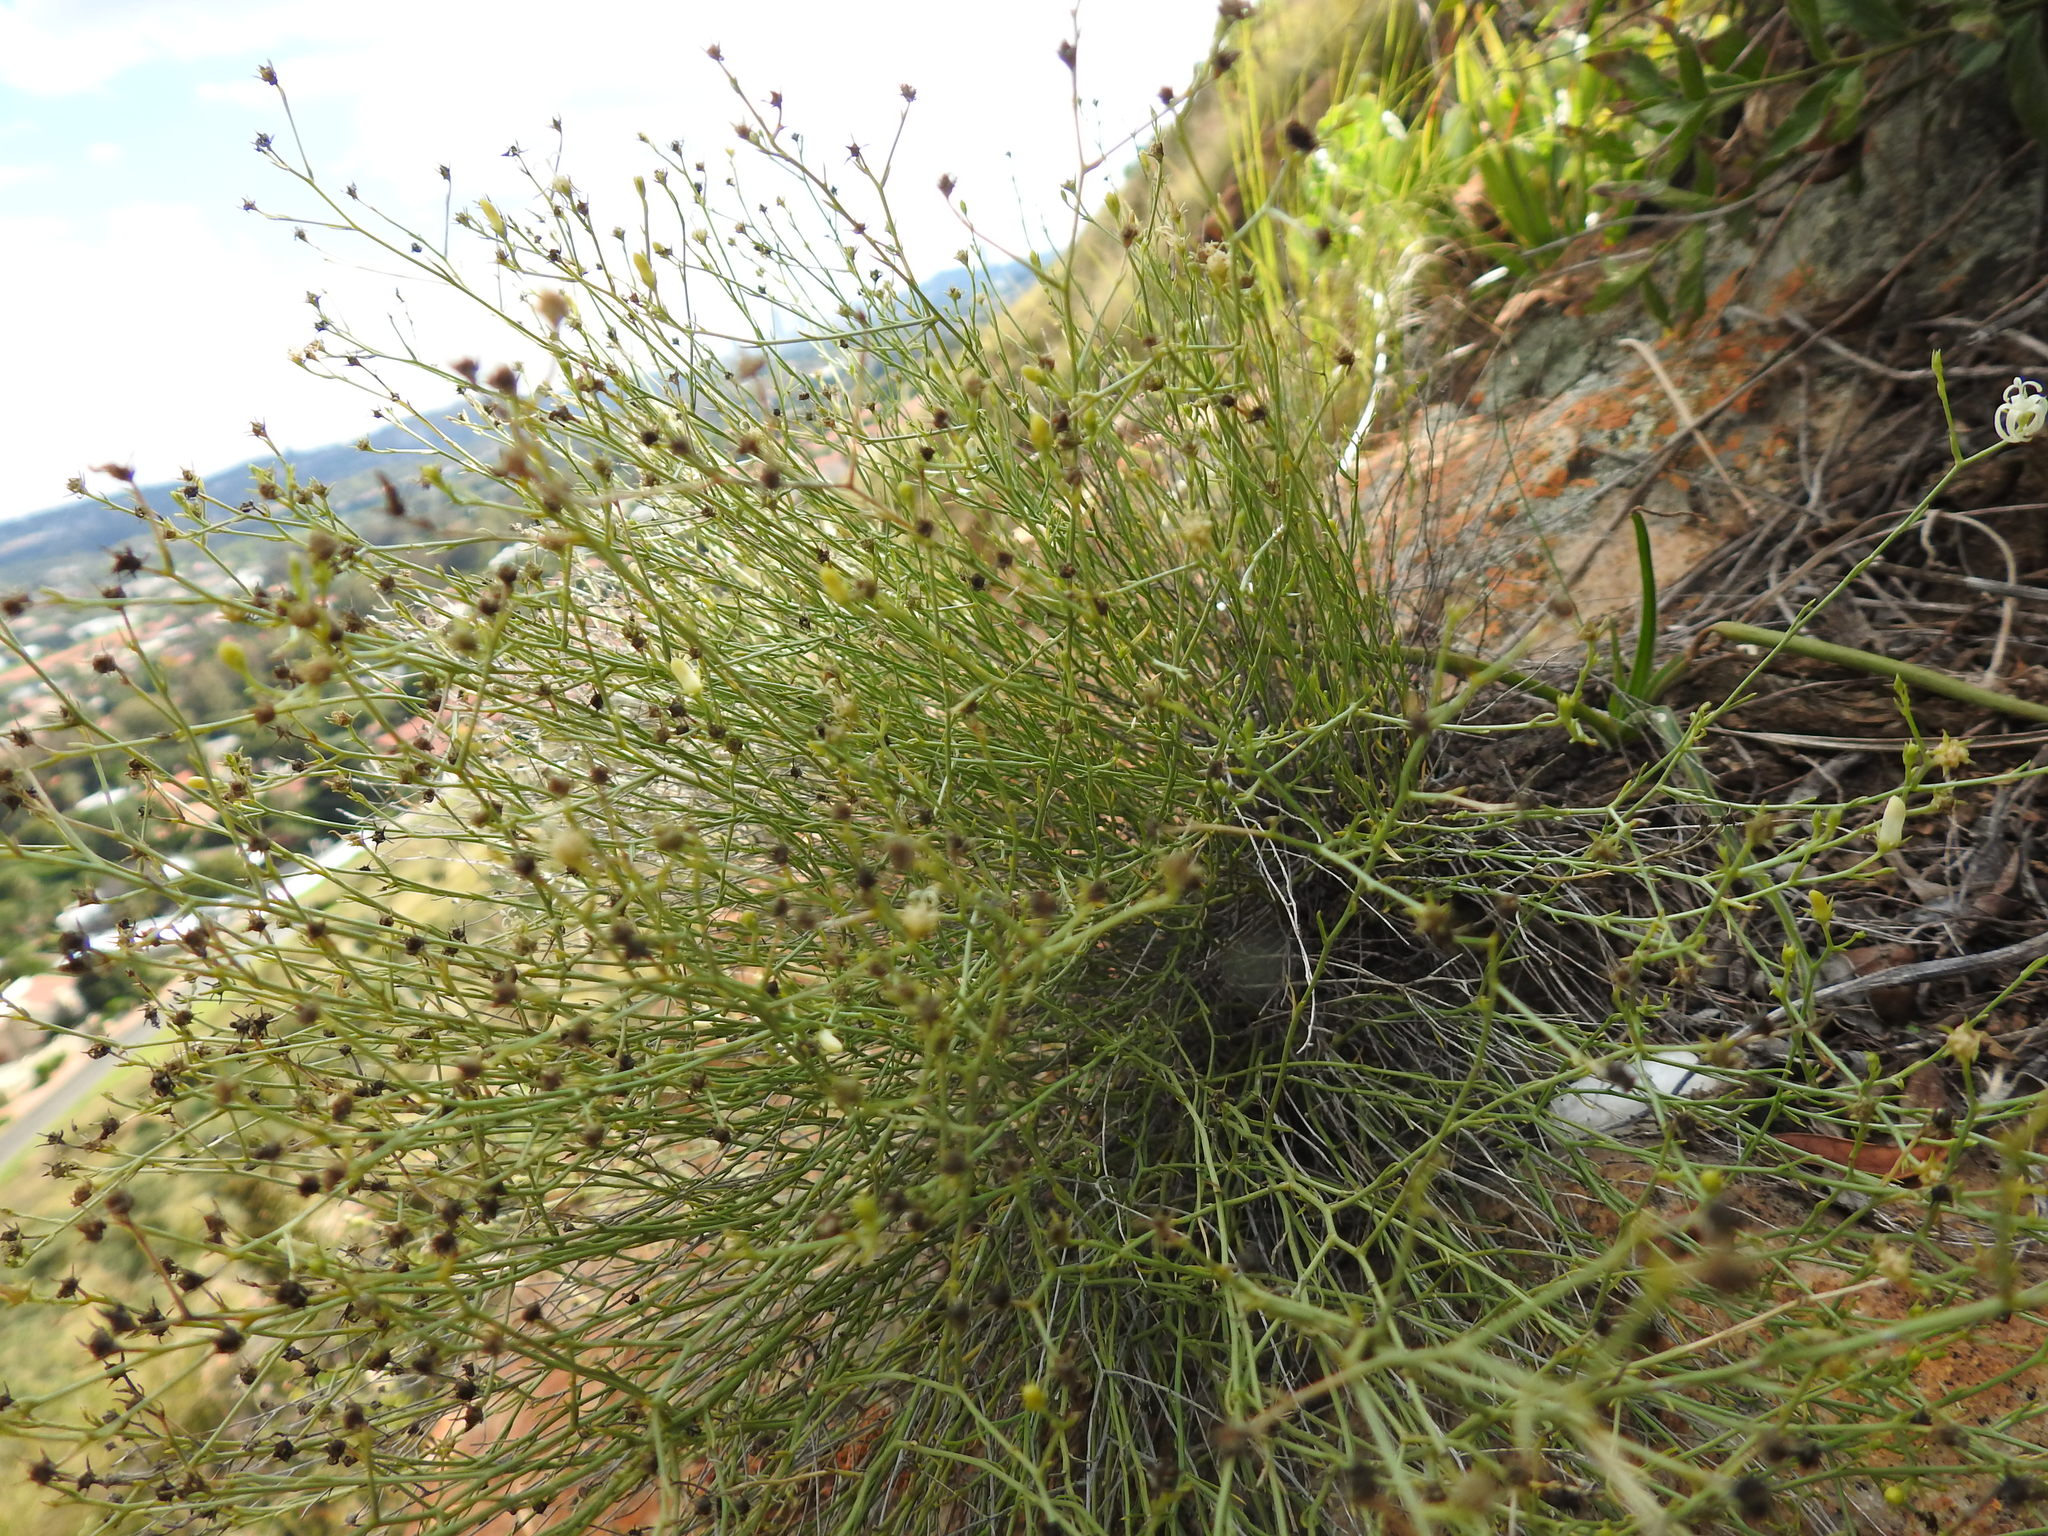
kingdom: Plantae
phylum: Tracheophyta
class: Magnoliopsida
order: Asterales
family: Campanulaceae
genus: Wahlenbergia
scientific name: Wahlenbergia magaliesbergensis
